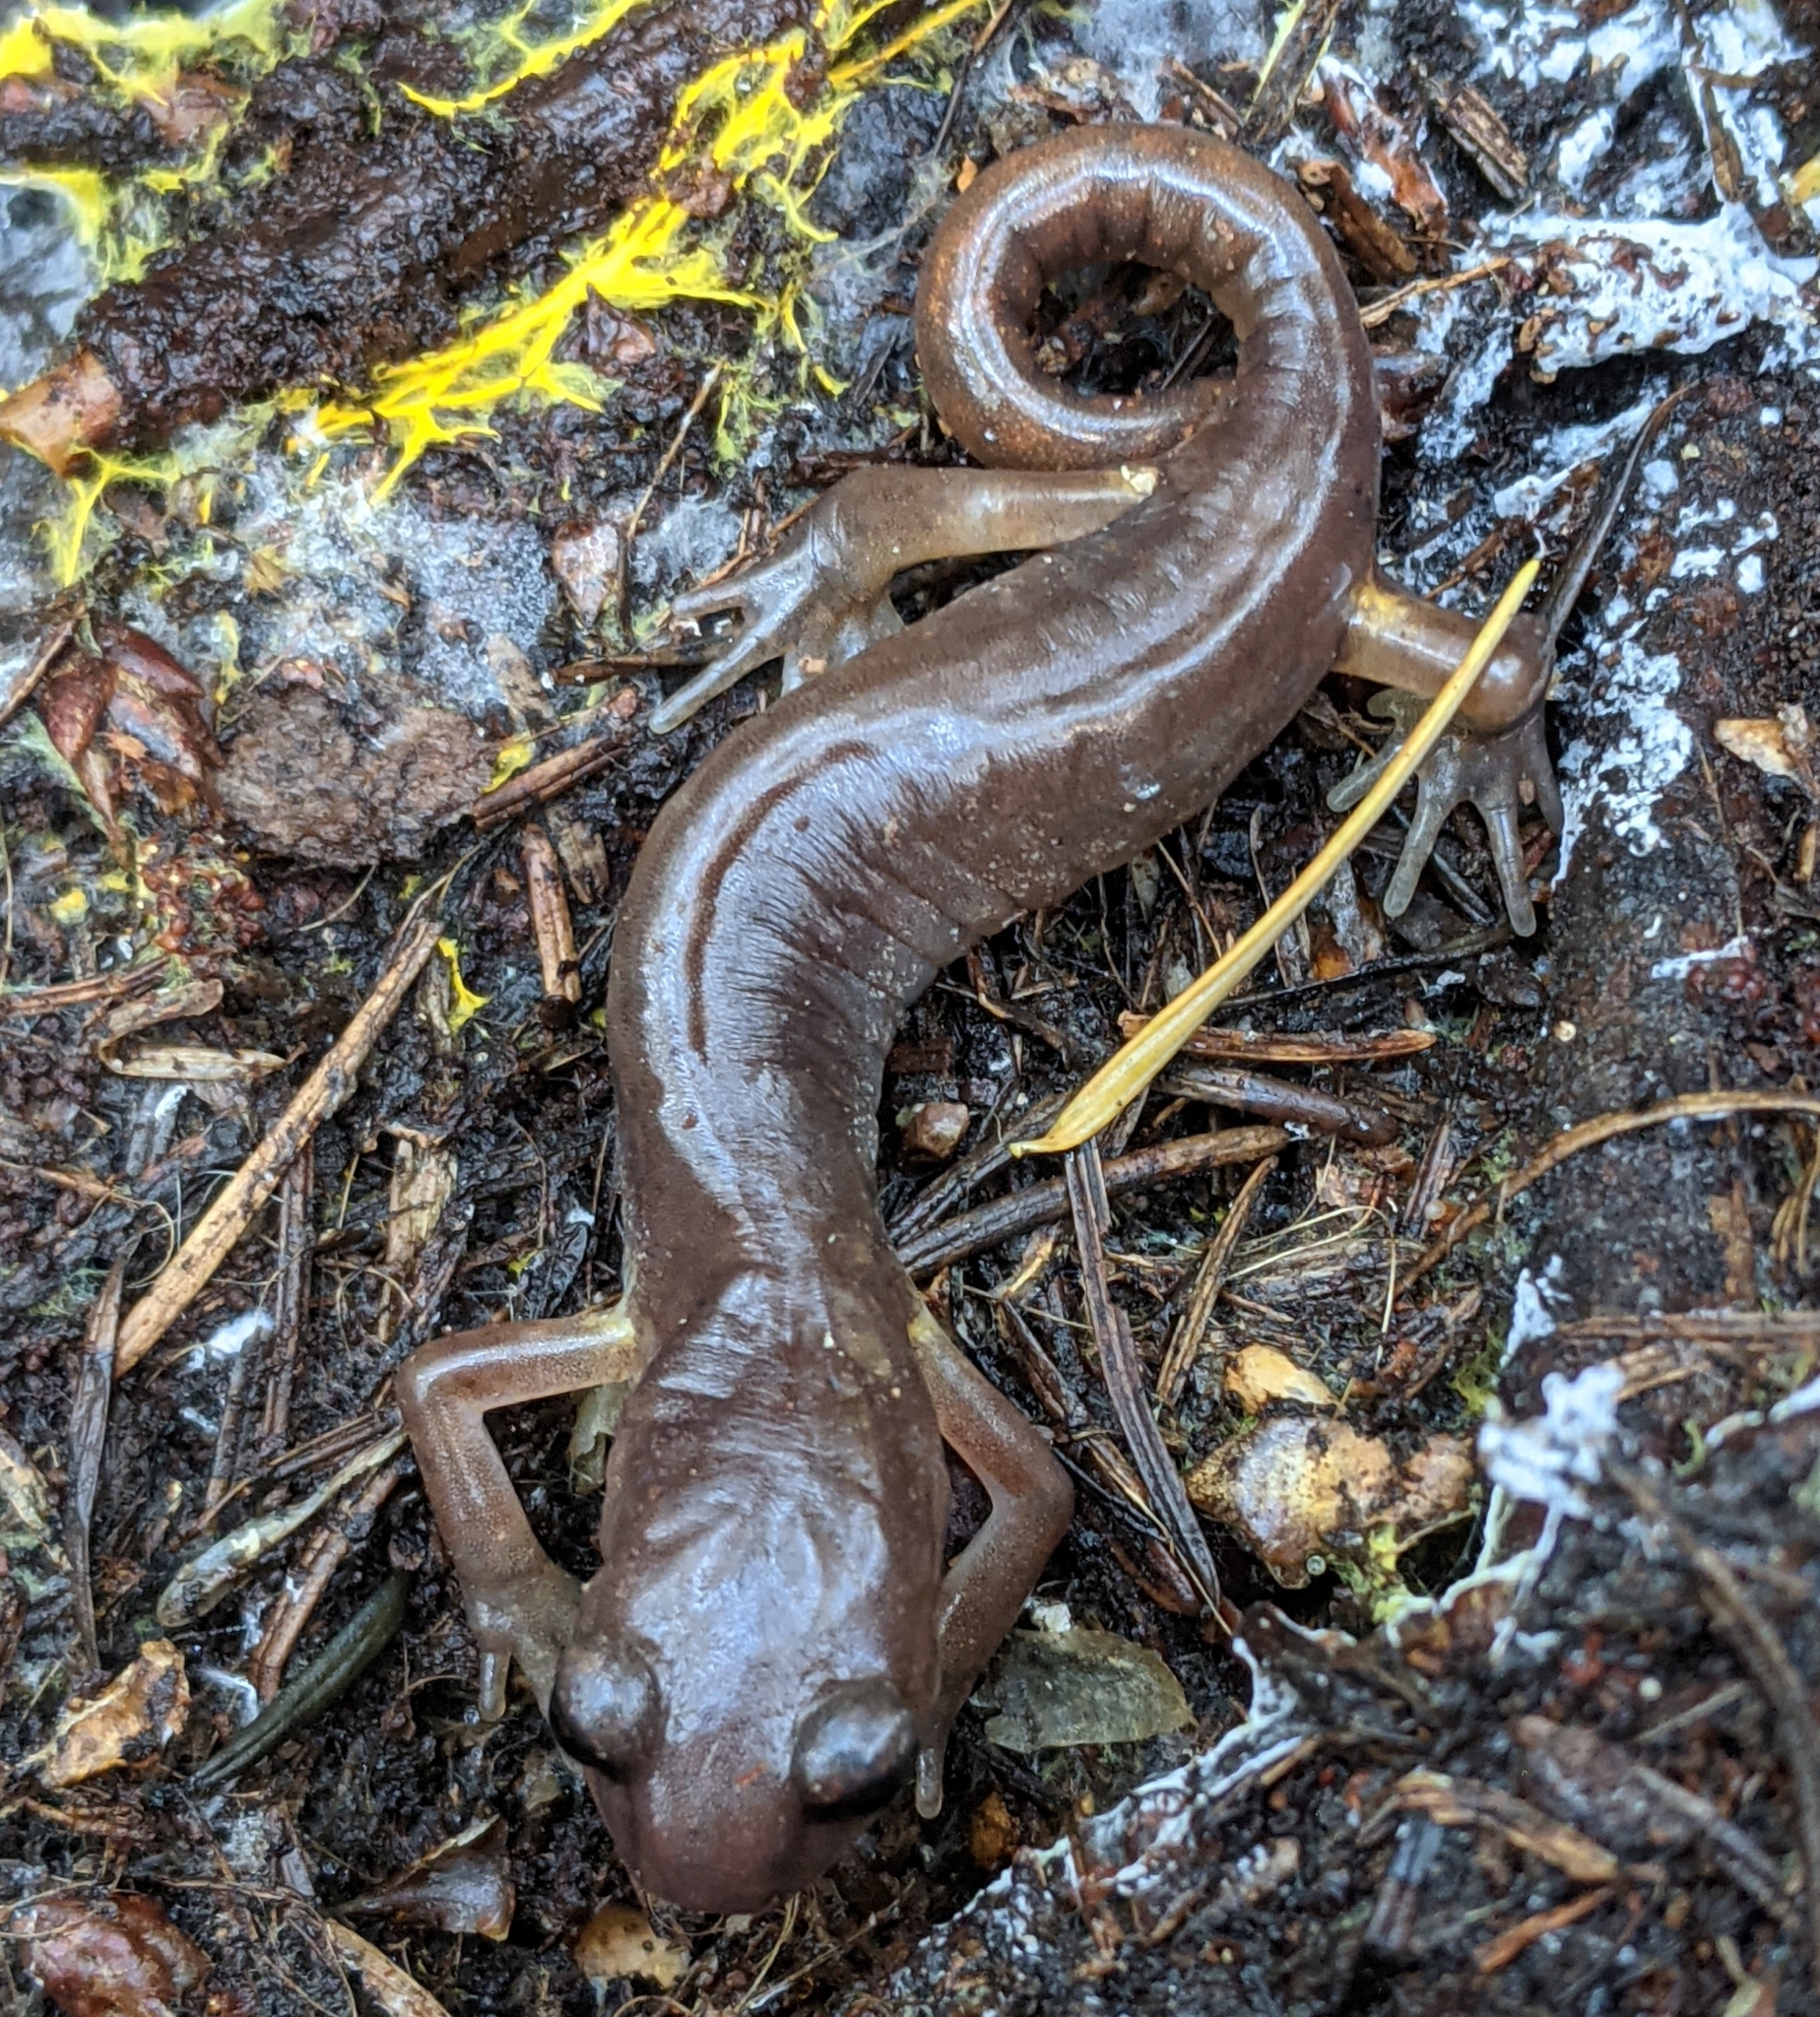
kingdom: Animalia
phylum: Chordata
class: Amphibia
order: Caudata
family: Plethodontidae
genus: Ensatina
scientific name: Ensatina eschscholtzii
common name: Ensatina
